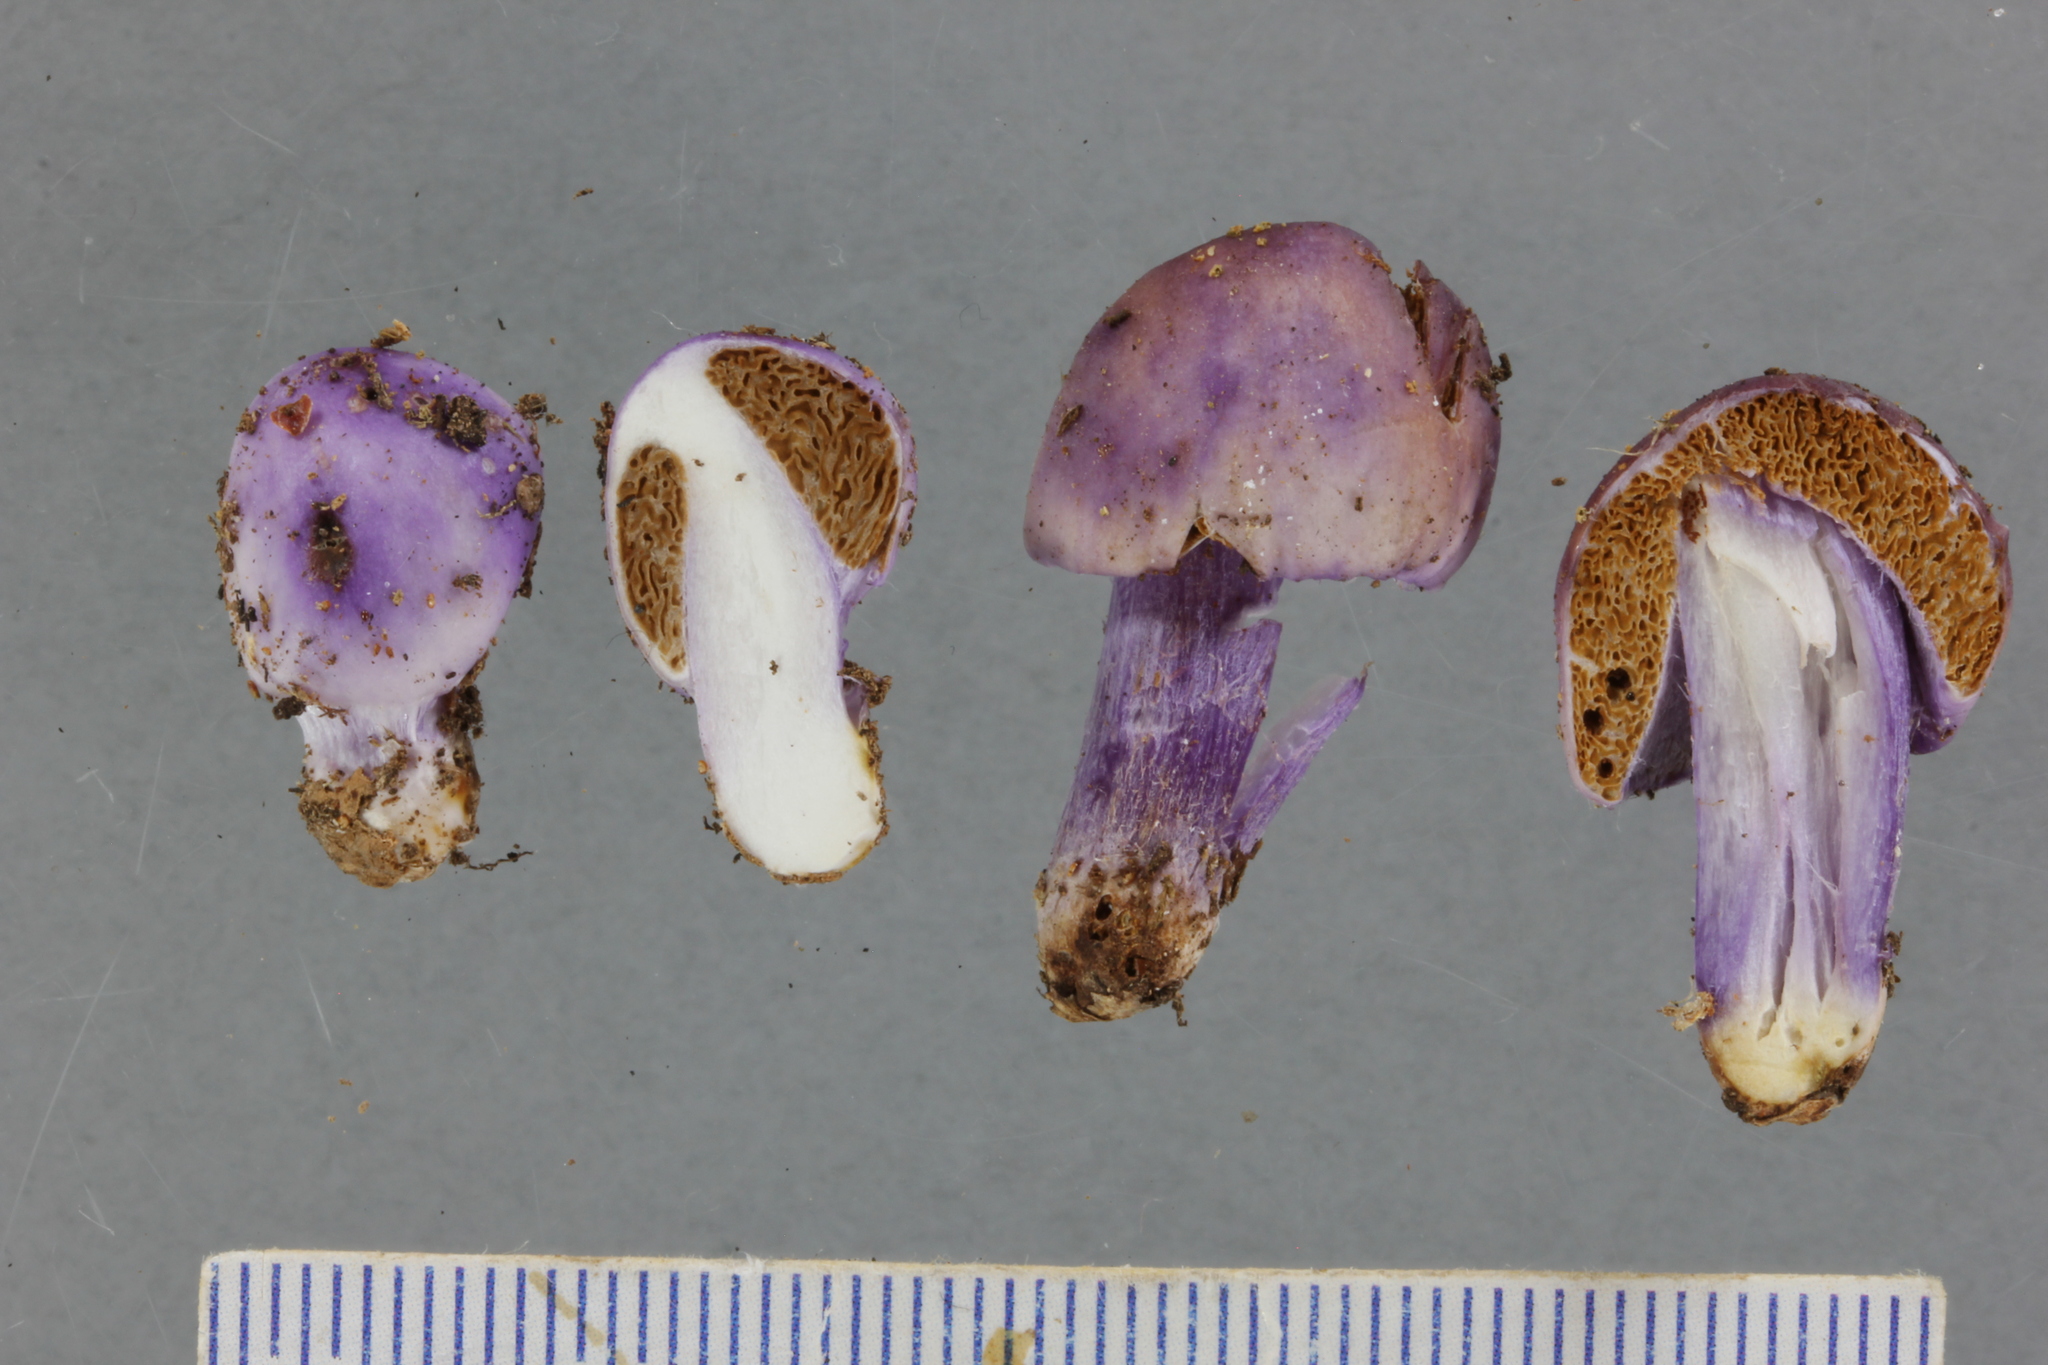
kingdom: Fungi
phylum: Basidiomycota
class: Agaricomycetes
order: Agaricales
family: Cortinariaceae
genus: Cortinarius
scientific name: Cortinarius violaceovolvatus
